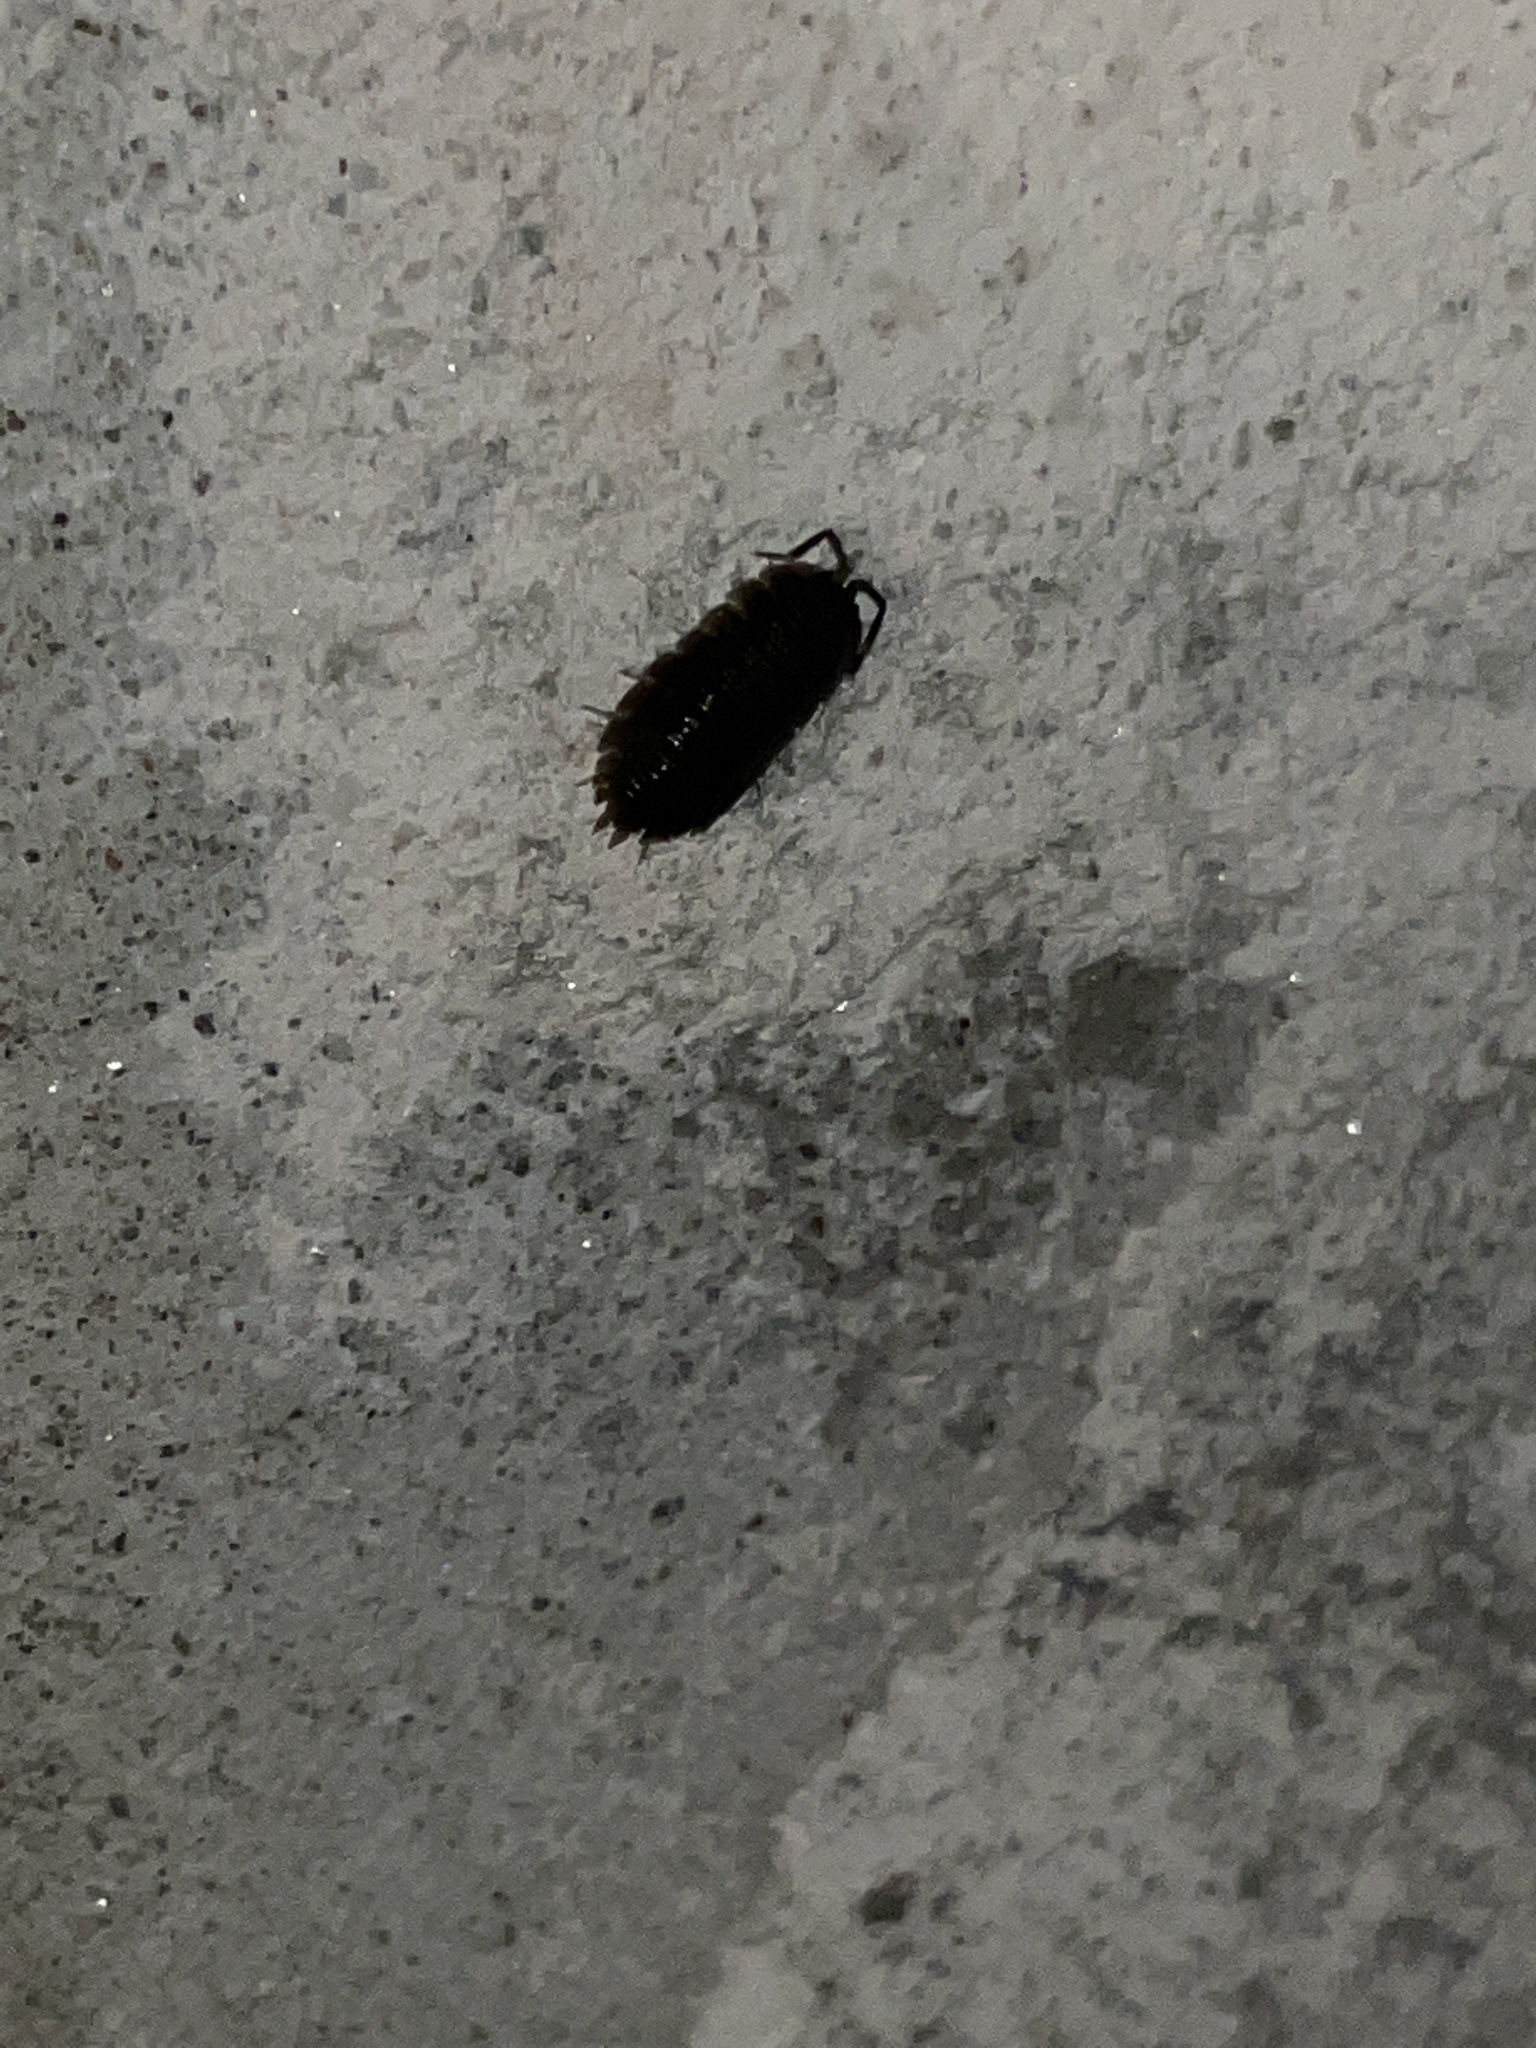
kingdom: Animalia
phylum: Arthropoda
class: Malacostraca
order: Isopoda
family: Porcellionidae
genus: Porcellio
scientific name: Porcellio scaber
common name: Common rough woodlouse
